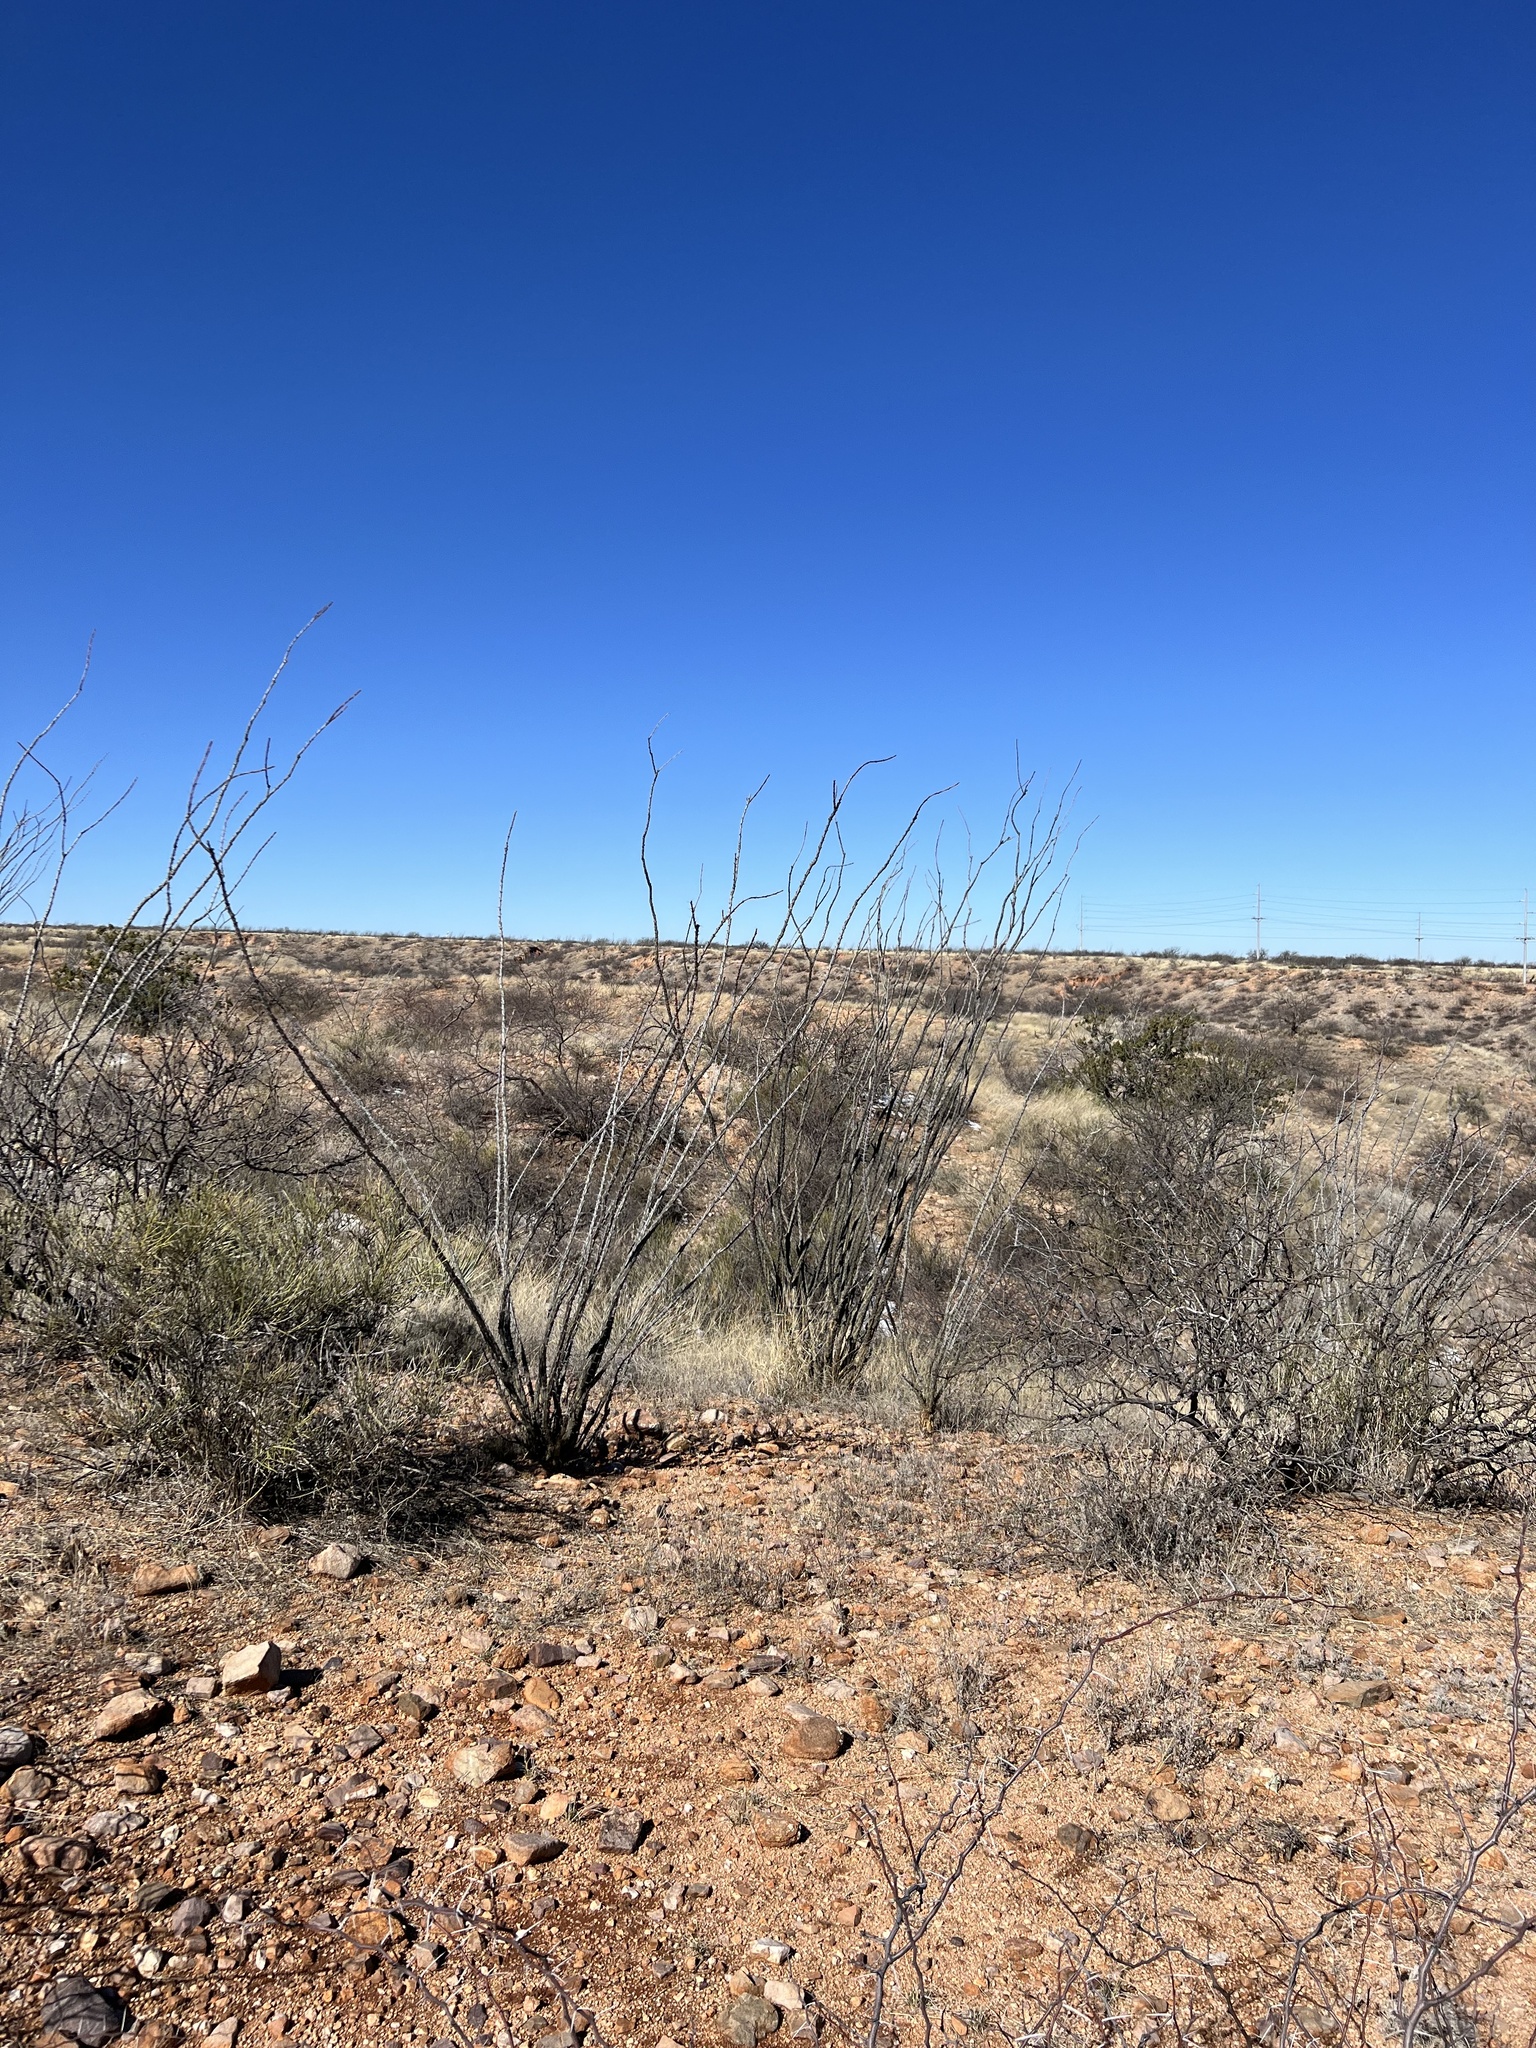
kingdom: Plantae
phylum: Tracheophyta
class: Magnoliopsida
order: Ericales
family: Fouquieriaceae
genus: Fouquieria
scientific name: Fouquieria splendens
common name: Vine-cactus
